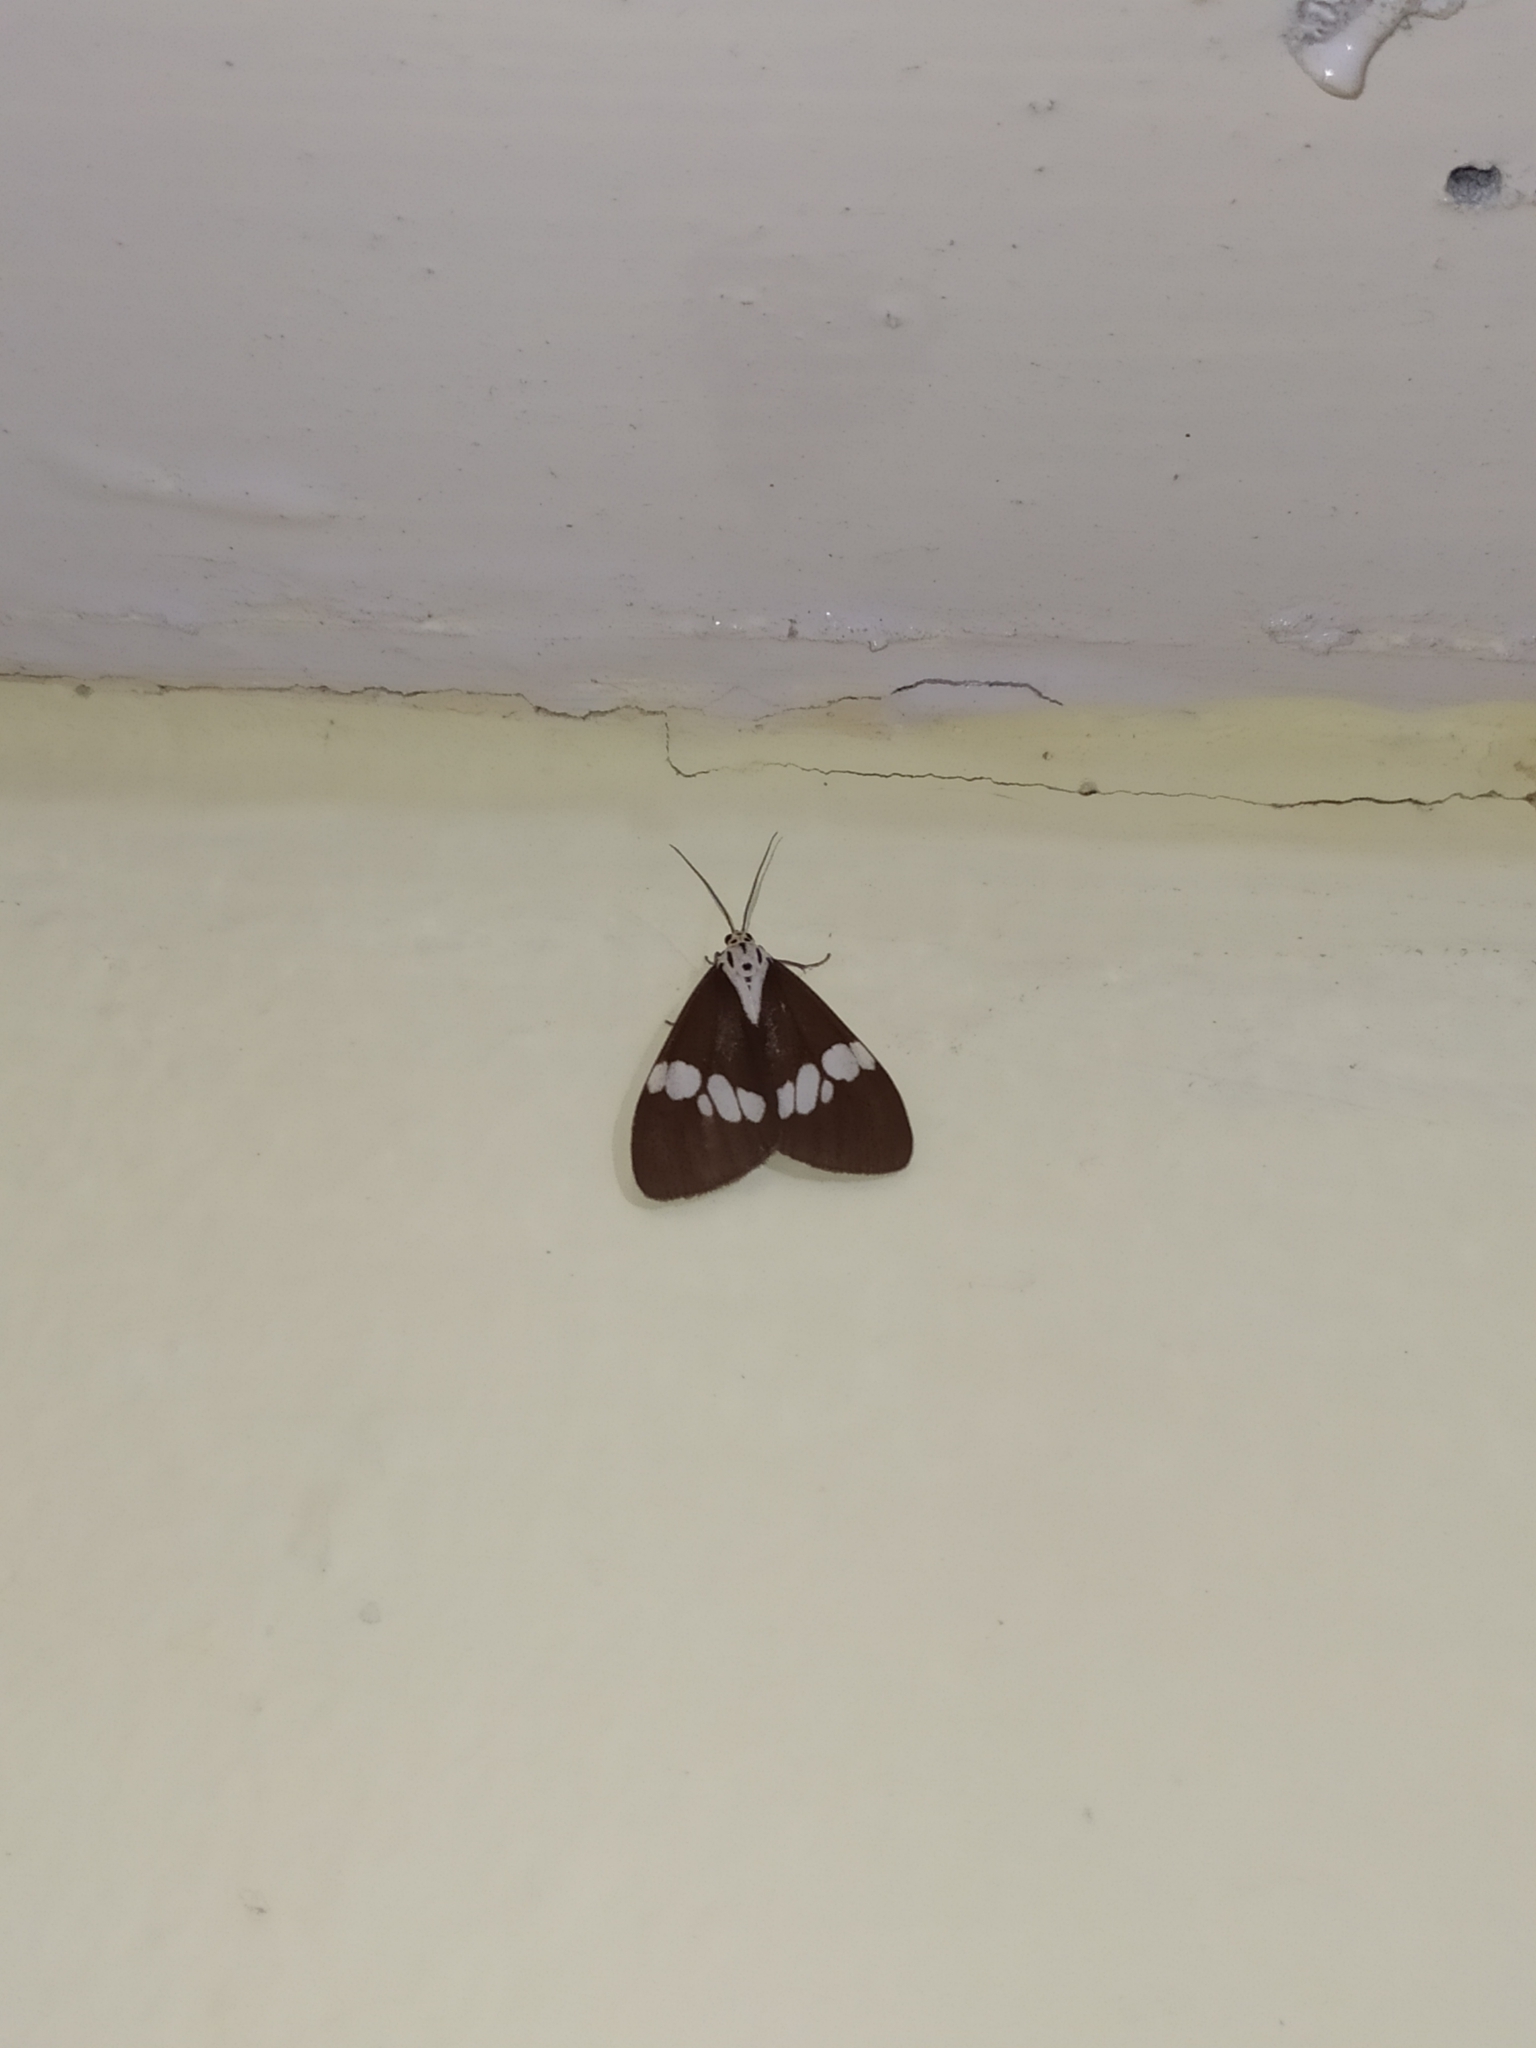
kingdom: Animalia
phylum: Arthropoda
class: Insecta
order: Lepidoptera
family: Erebidae
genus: Nyctemera
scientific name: Nyctemera lacticinia
